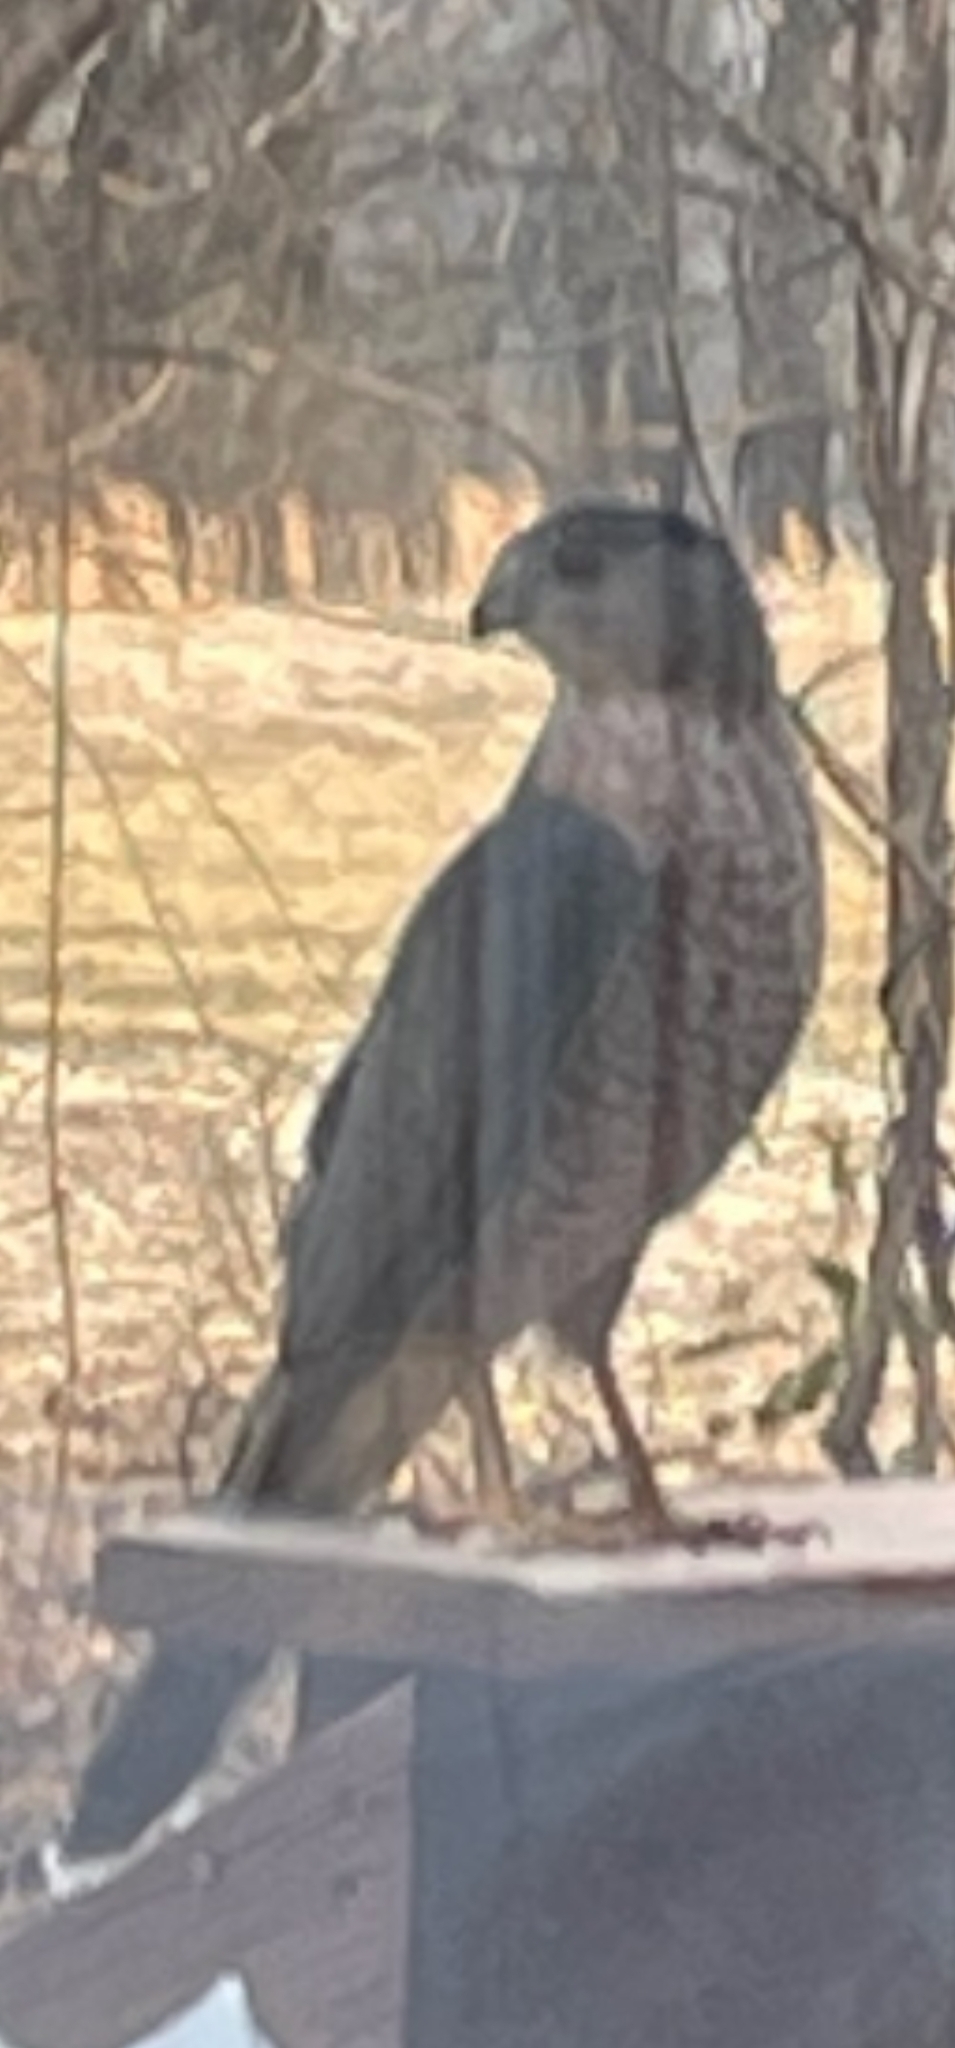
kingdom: Animalia
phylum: Chordata
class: Aves
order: Accipitriformes
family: Accipitridae
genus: Accipiter
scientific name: Accipiter cooperii
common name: Cooper's hawk
